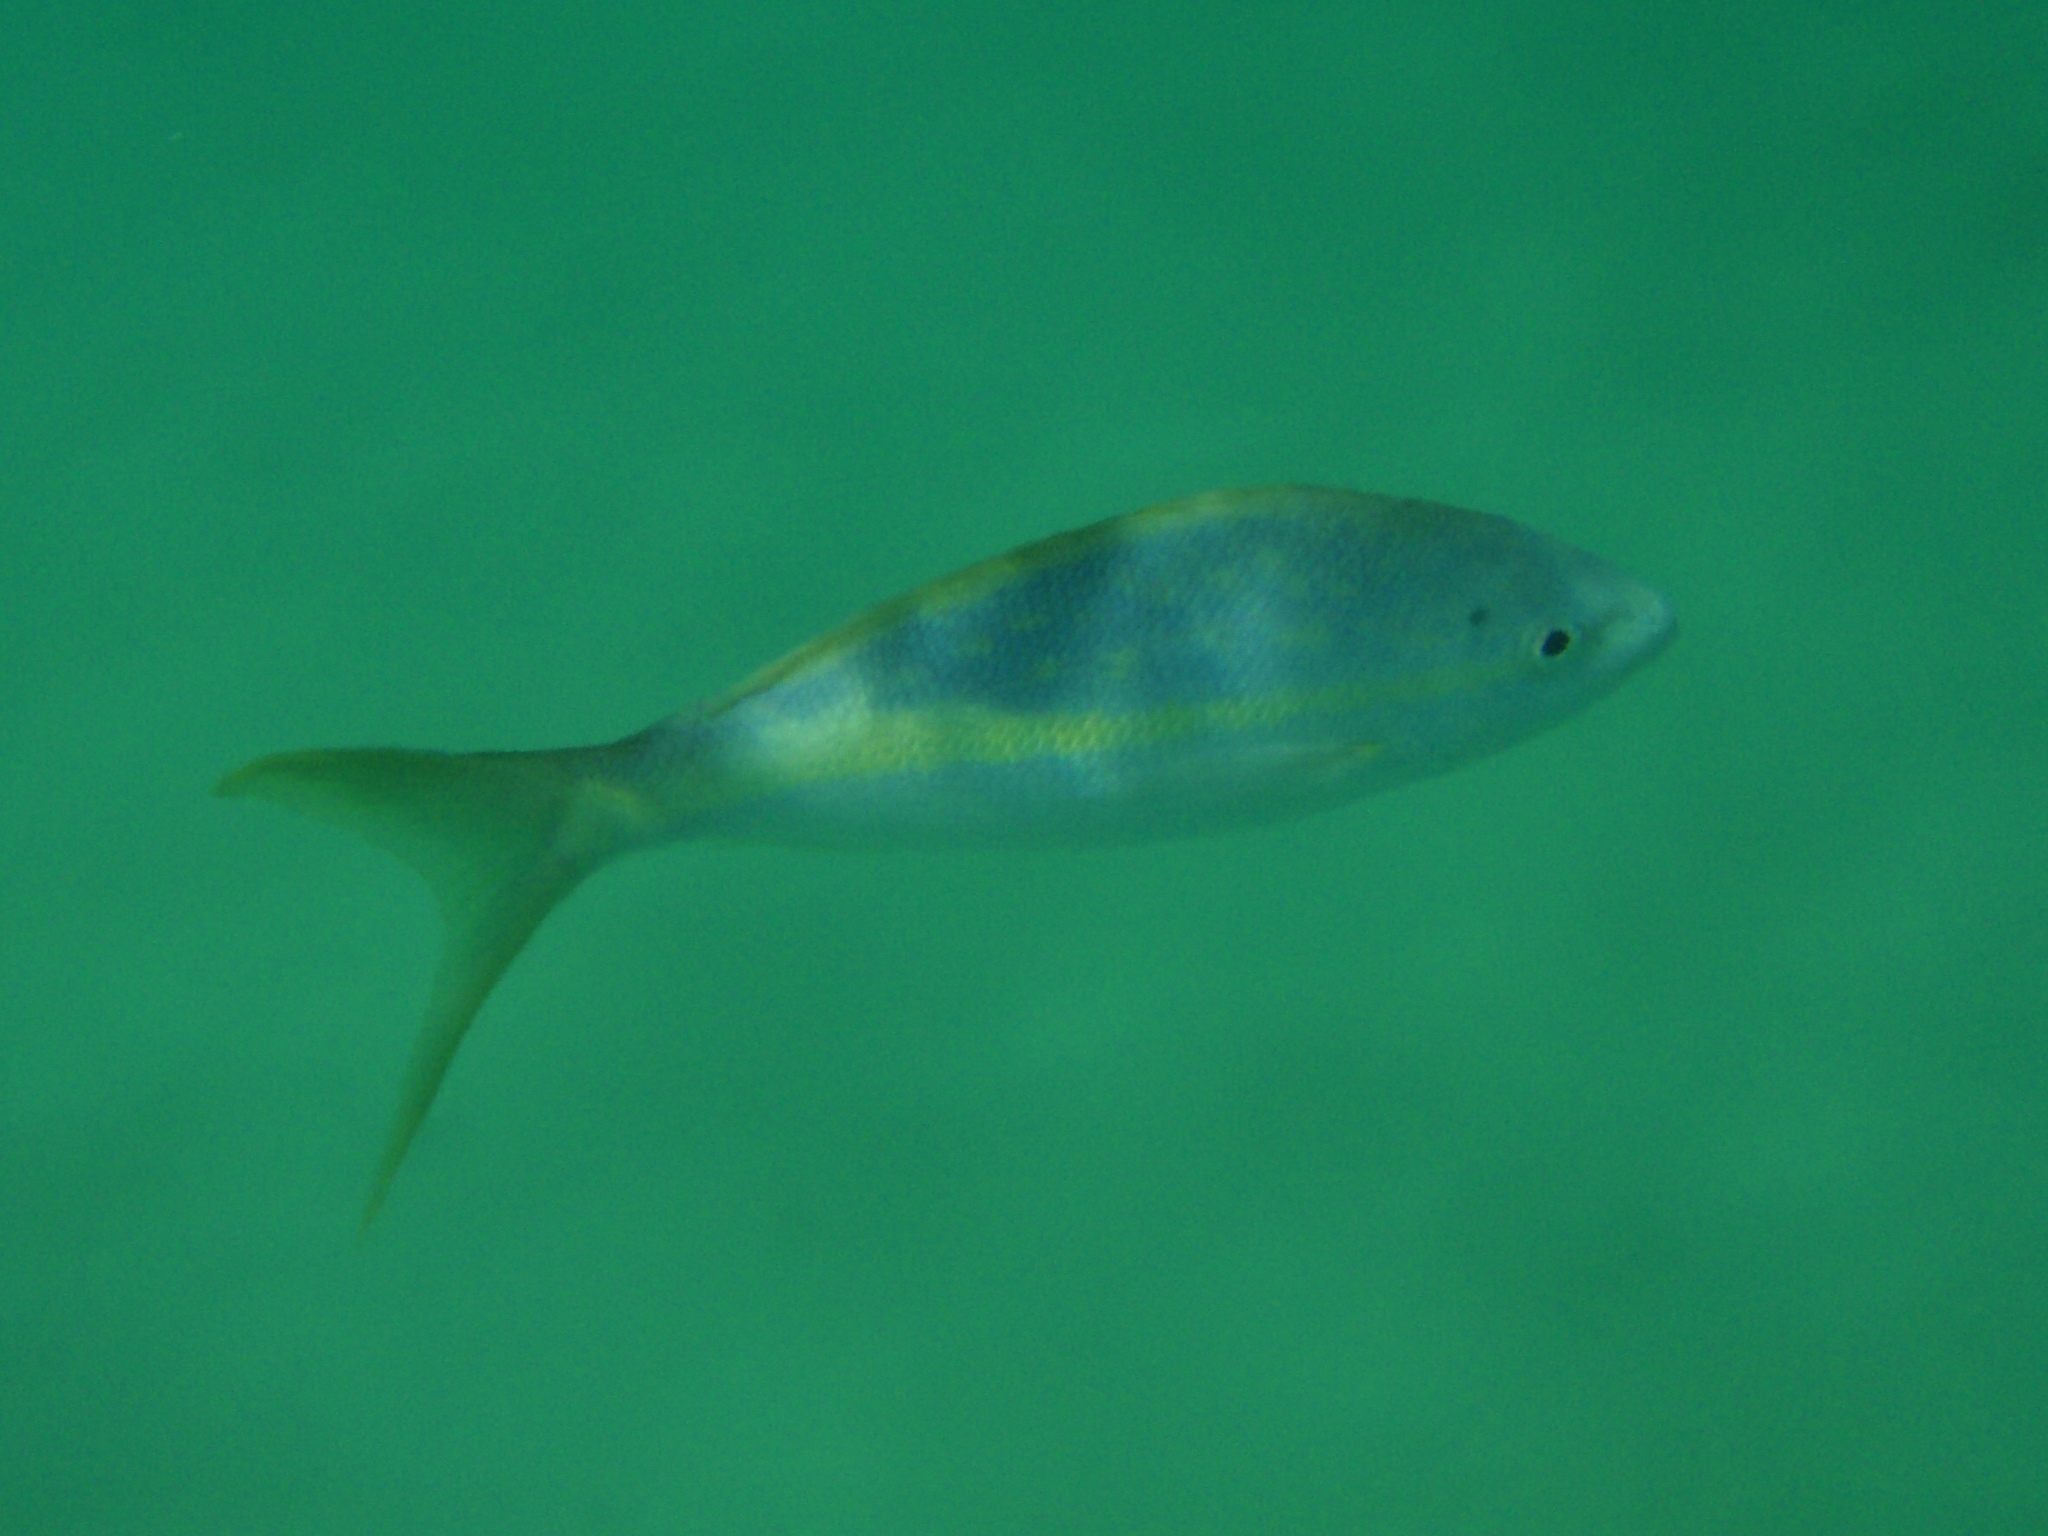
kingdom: Animalia
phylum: Chordata
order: Perciformes
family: Lutjanidae
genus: Ocyurus
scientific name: Ocyurus chrysurus
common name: Yellowtail snapper
